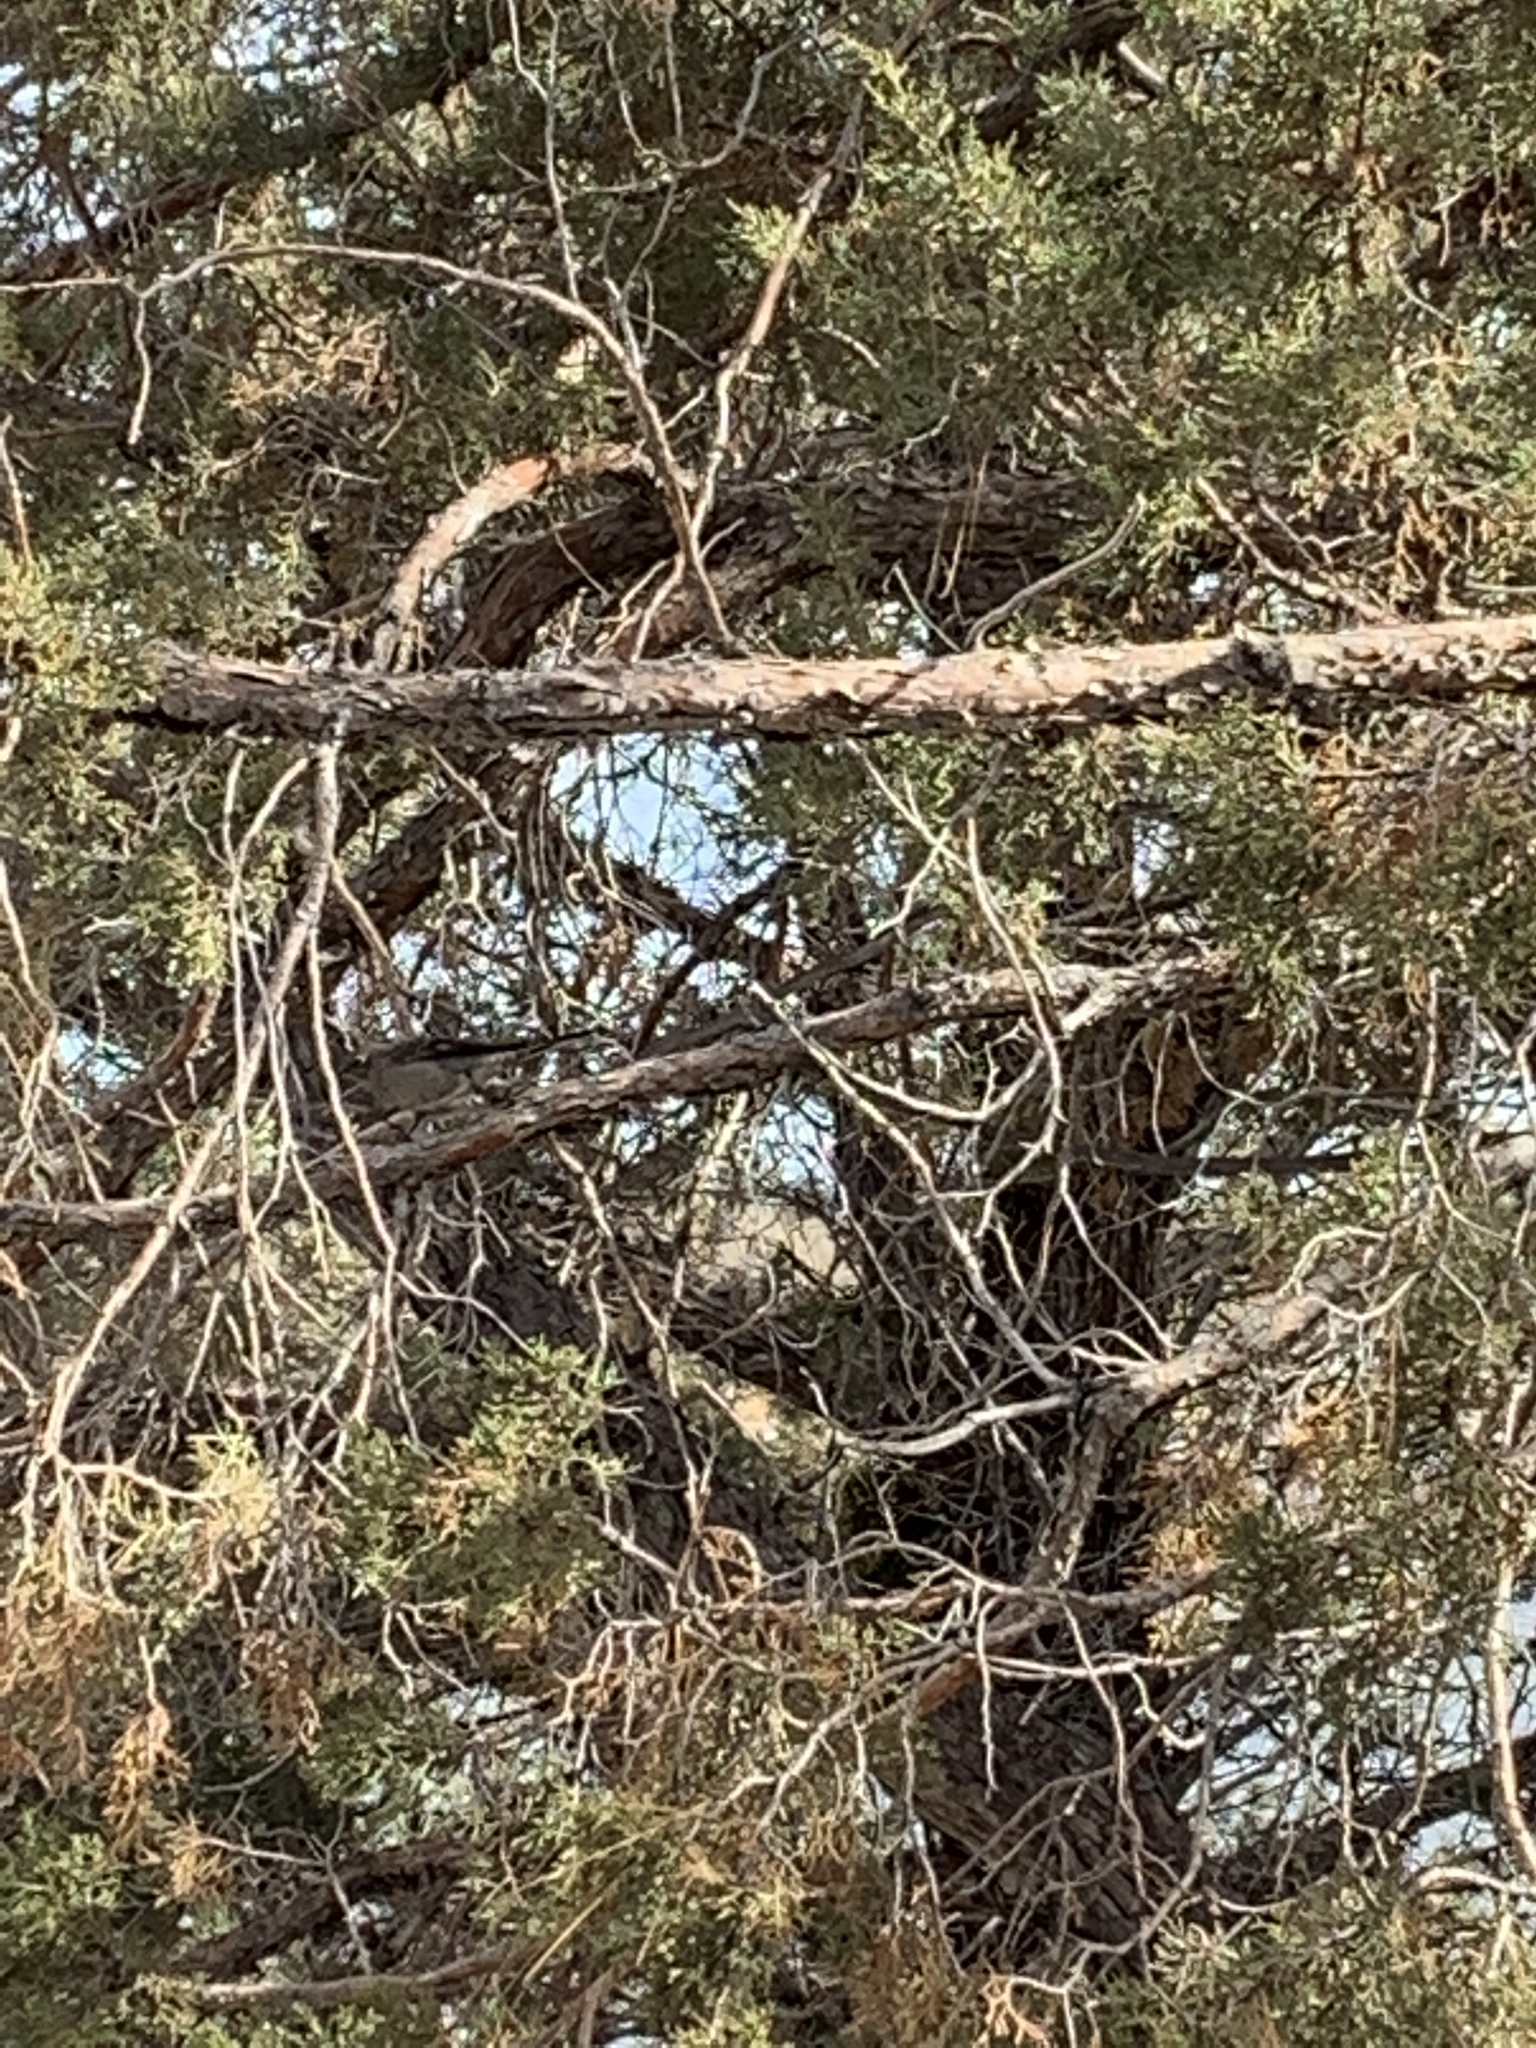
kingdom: Animalia
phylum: Chordata
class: Aves
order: Passeriformes
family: Turdidae
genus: Myadestes
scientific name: Myadestes townsendi
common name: Townsend's solitaire
